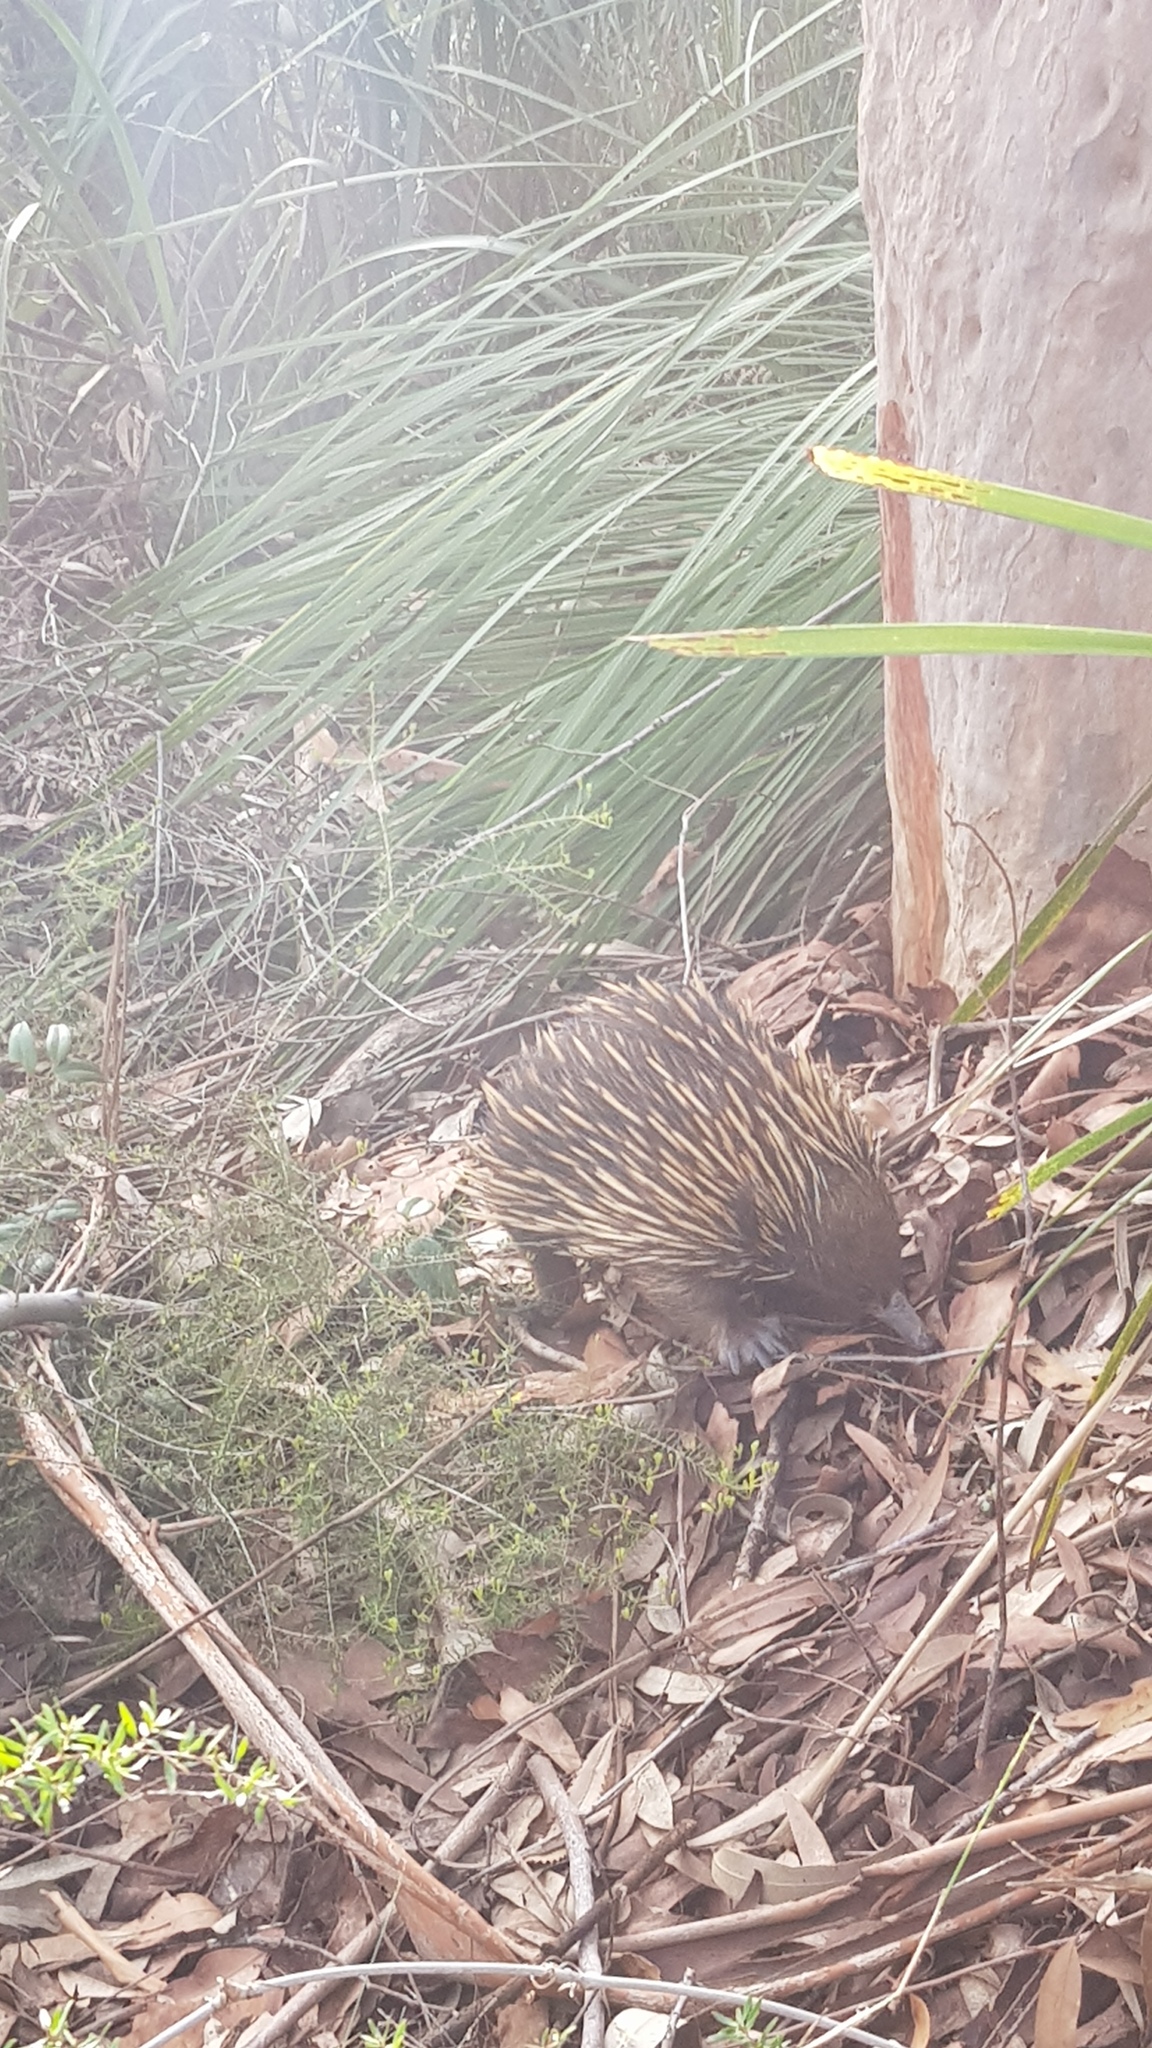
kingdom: Animalia
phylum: Chordata
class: Mammalia
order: Monotremata
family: Tachyglossidae
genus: Tachyglossus
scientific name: Tachyglossus aculeatus
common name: Short-beaked echidna
